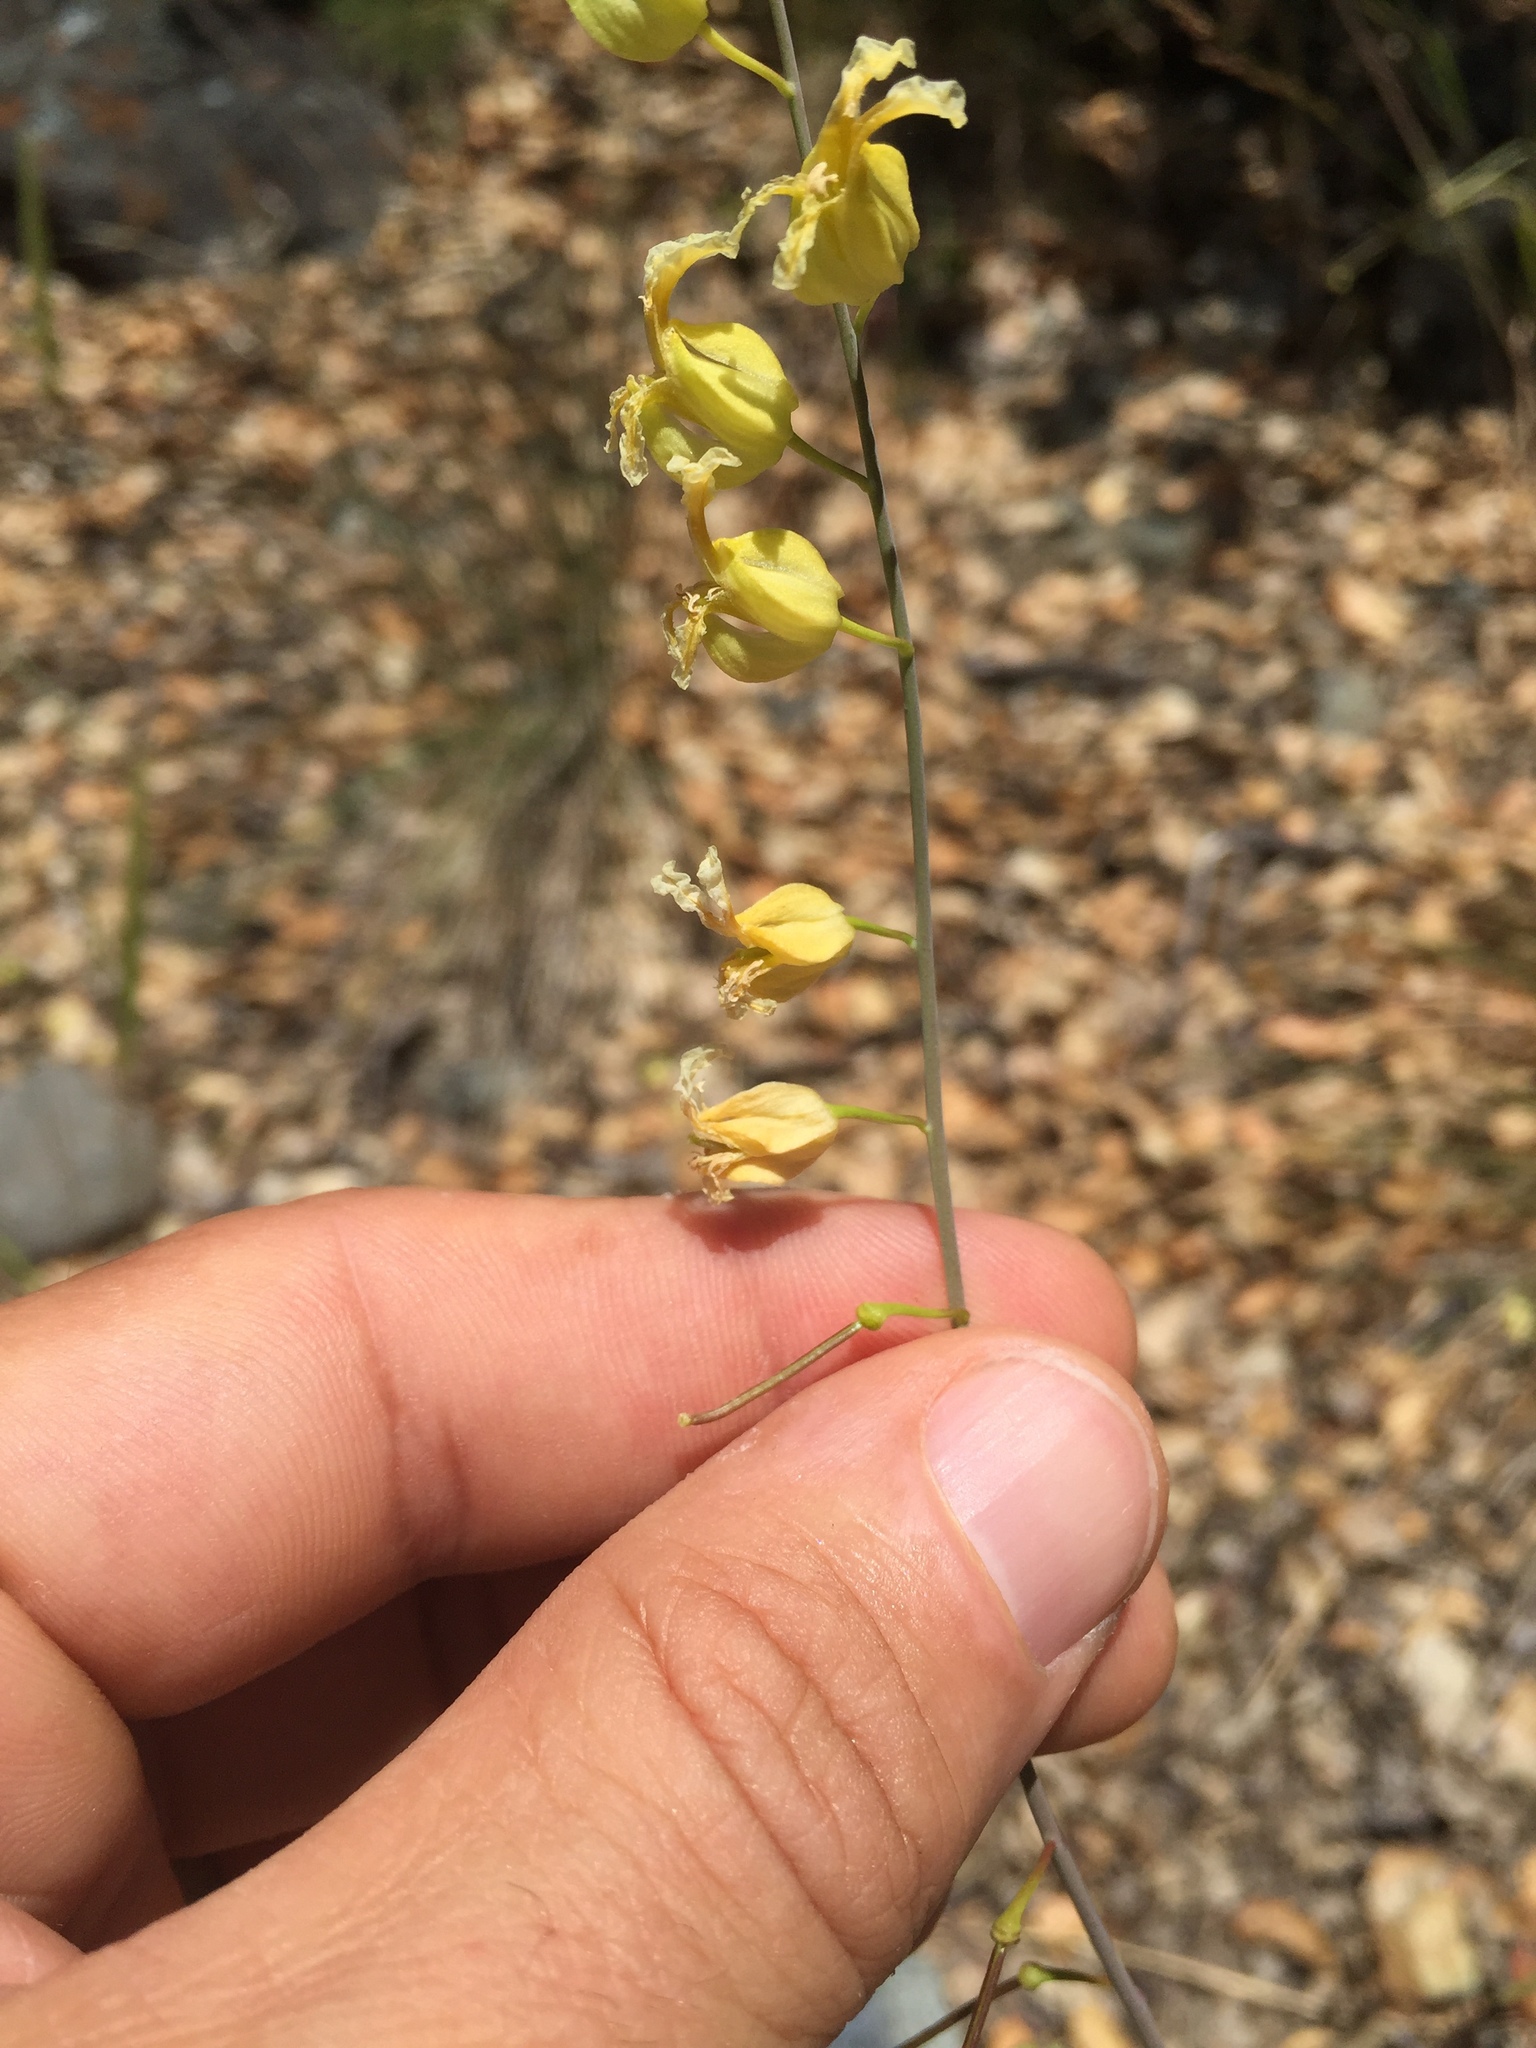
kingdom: Plantae
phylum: Tracheophyta
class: Magnoliopsida
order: Brassicales
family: Brassicaceae
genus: Streptanthus
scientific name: Streptanthus glandulosus
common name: Jewel-flower
